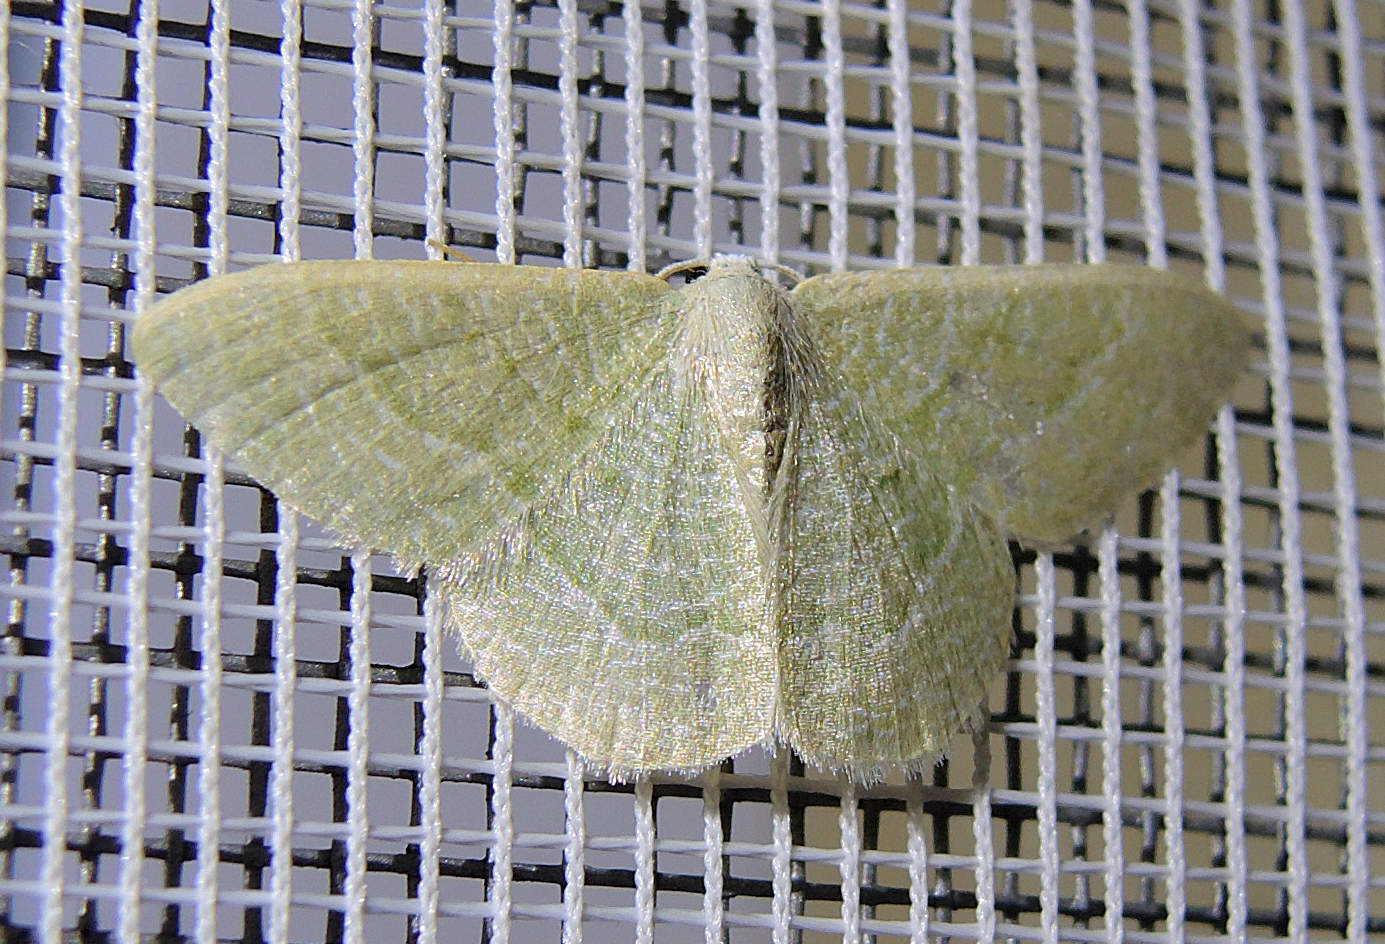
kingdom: Animalia
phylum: Arthropoda
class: Insecta
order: Lepidoptera
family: Geometridae
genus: Chlorissa
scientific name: Chlorissa etruscaria
